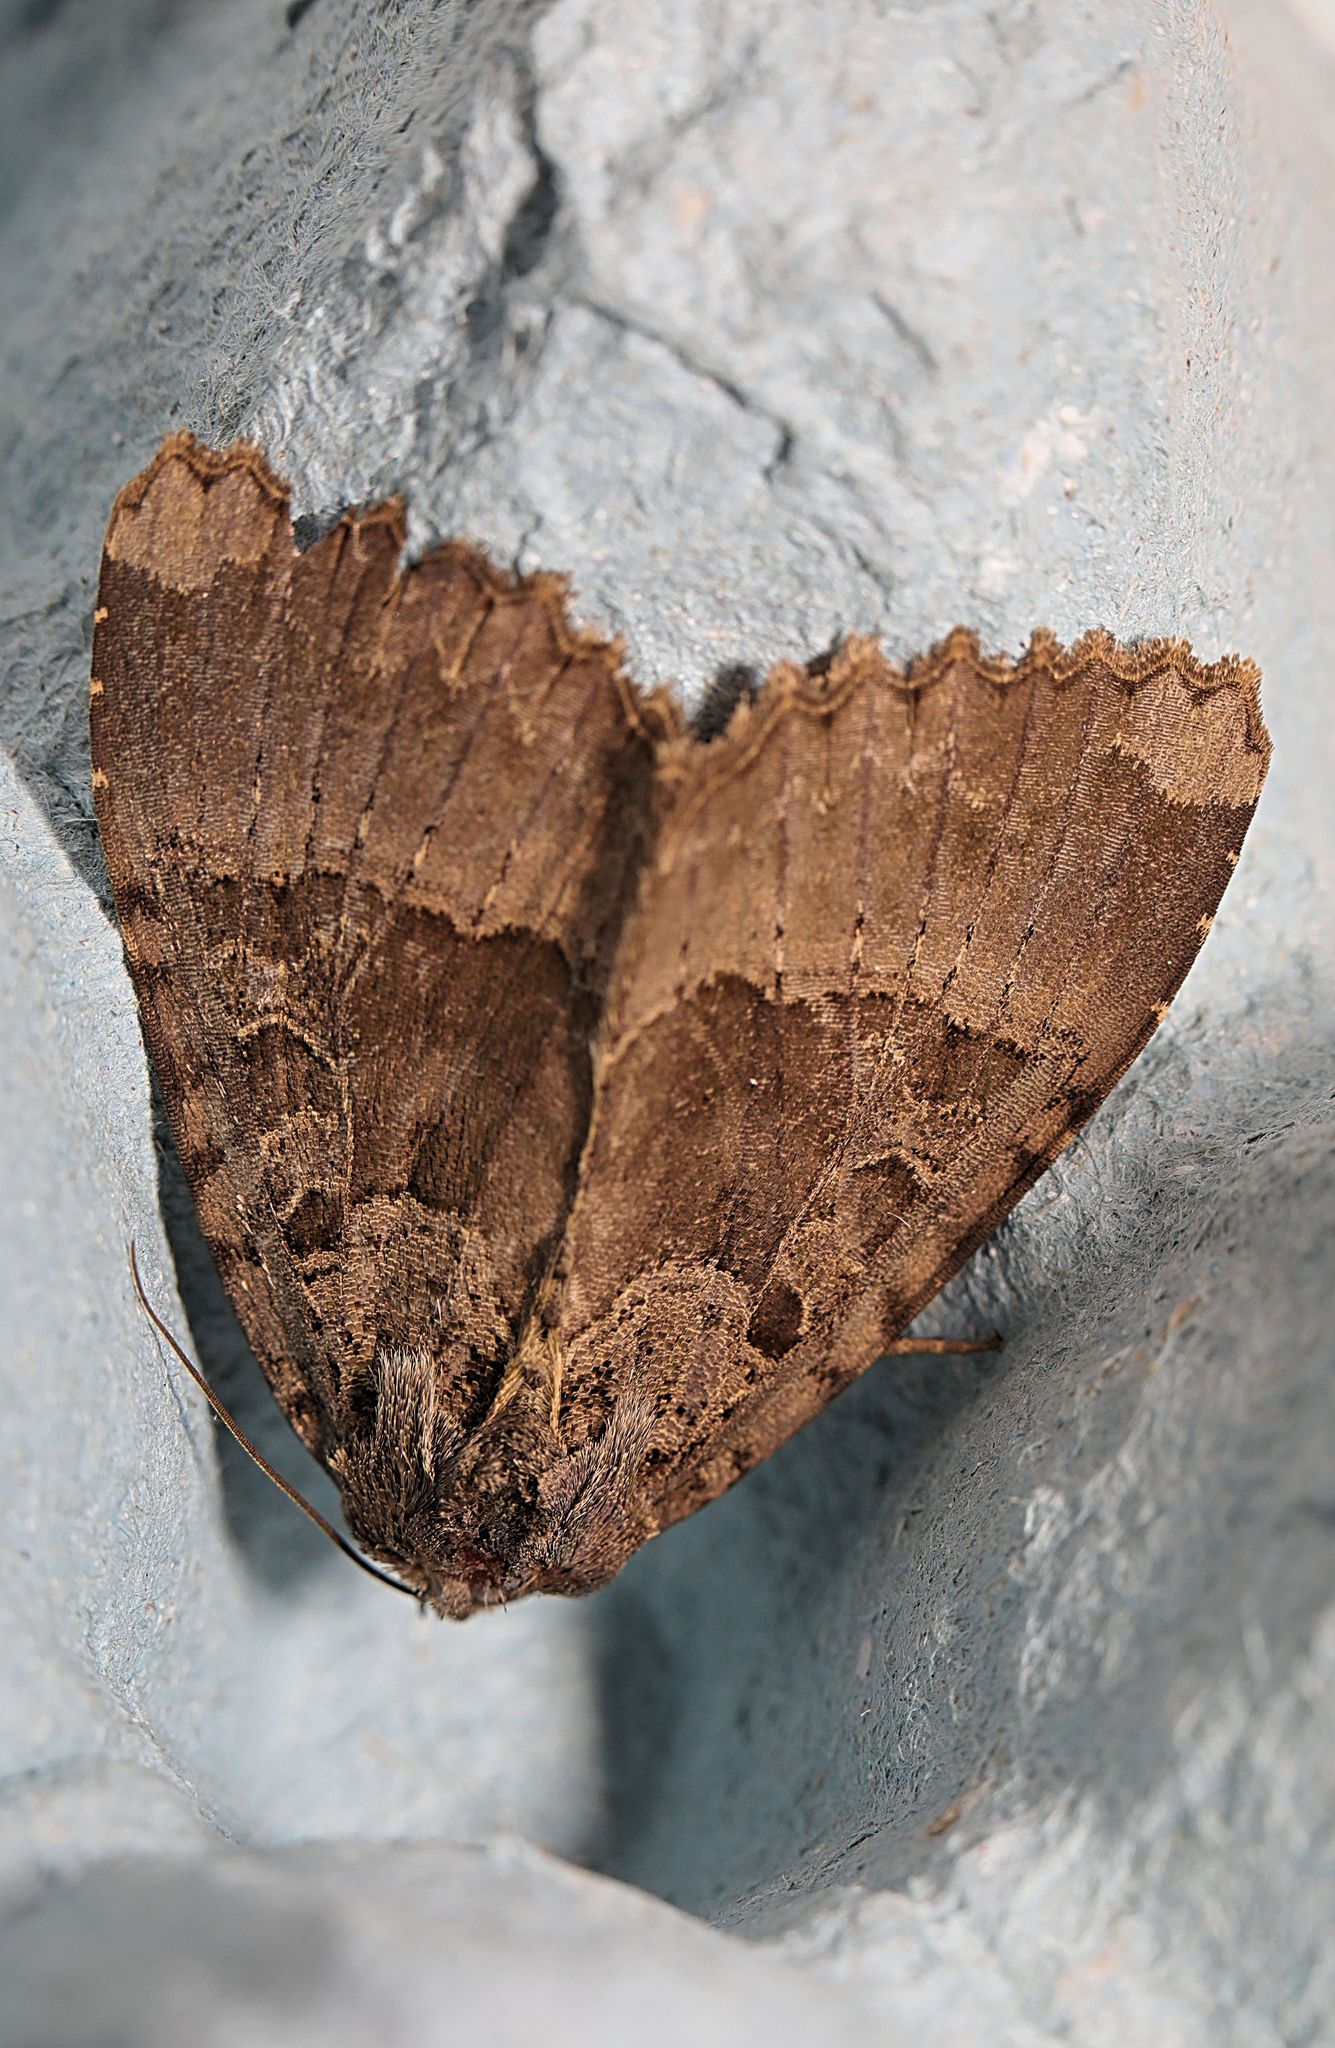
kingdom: Animalia
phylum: Arthropoda
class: Insecta
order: Lepidoptera
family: Noctuidae
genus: Mormo
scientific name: Mormo maura
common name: Old lady
